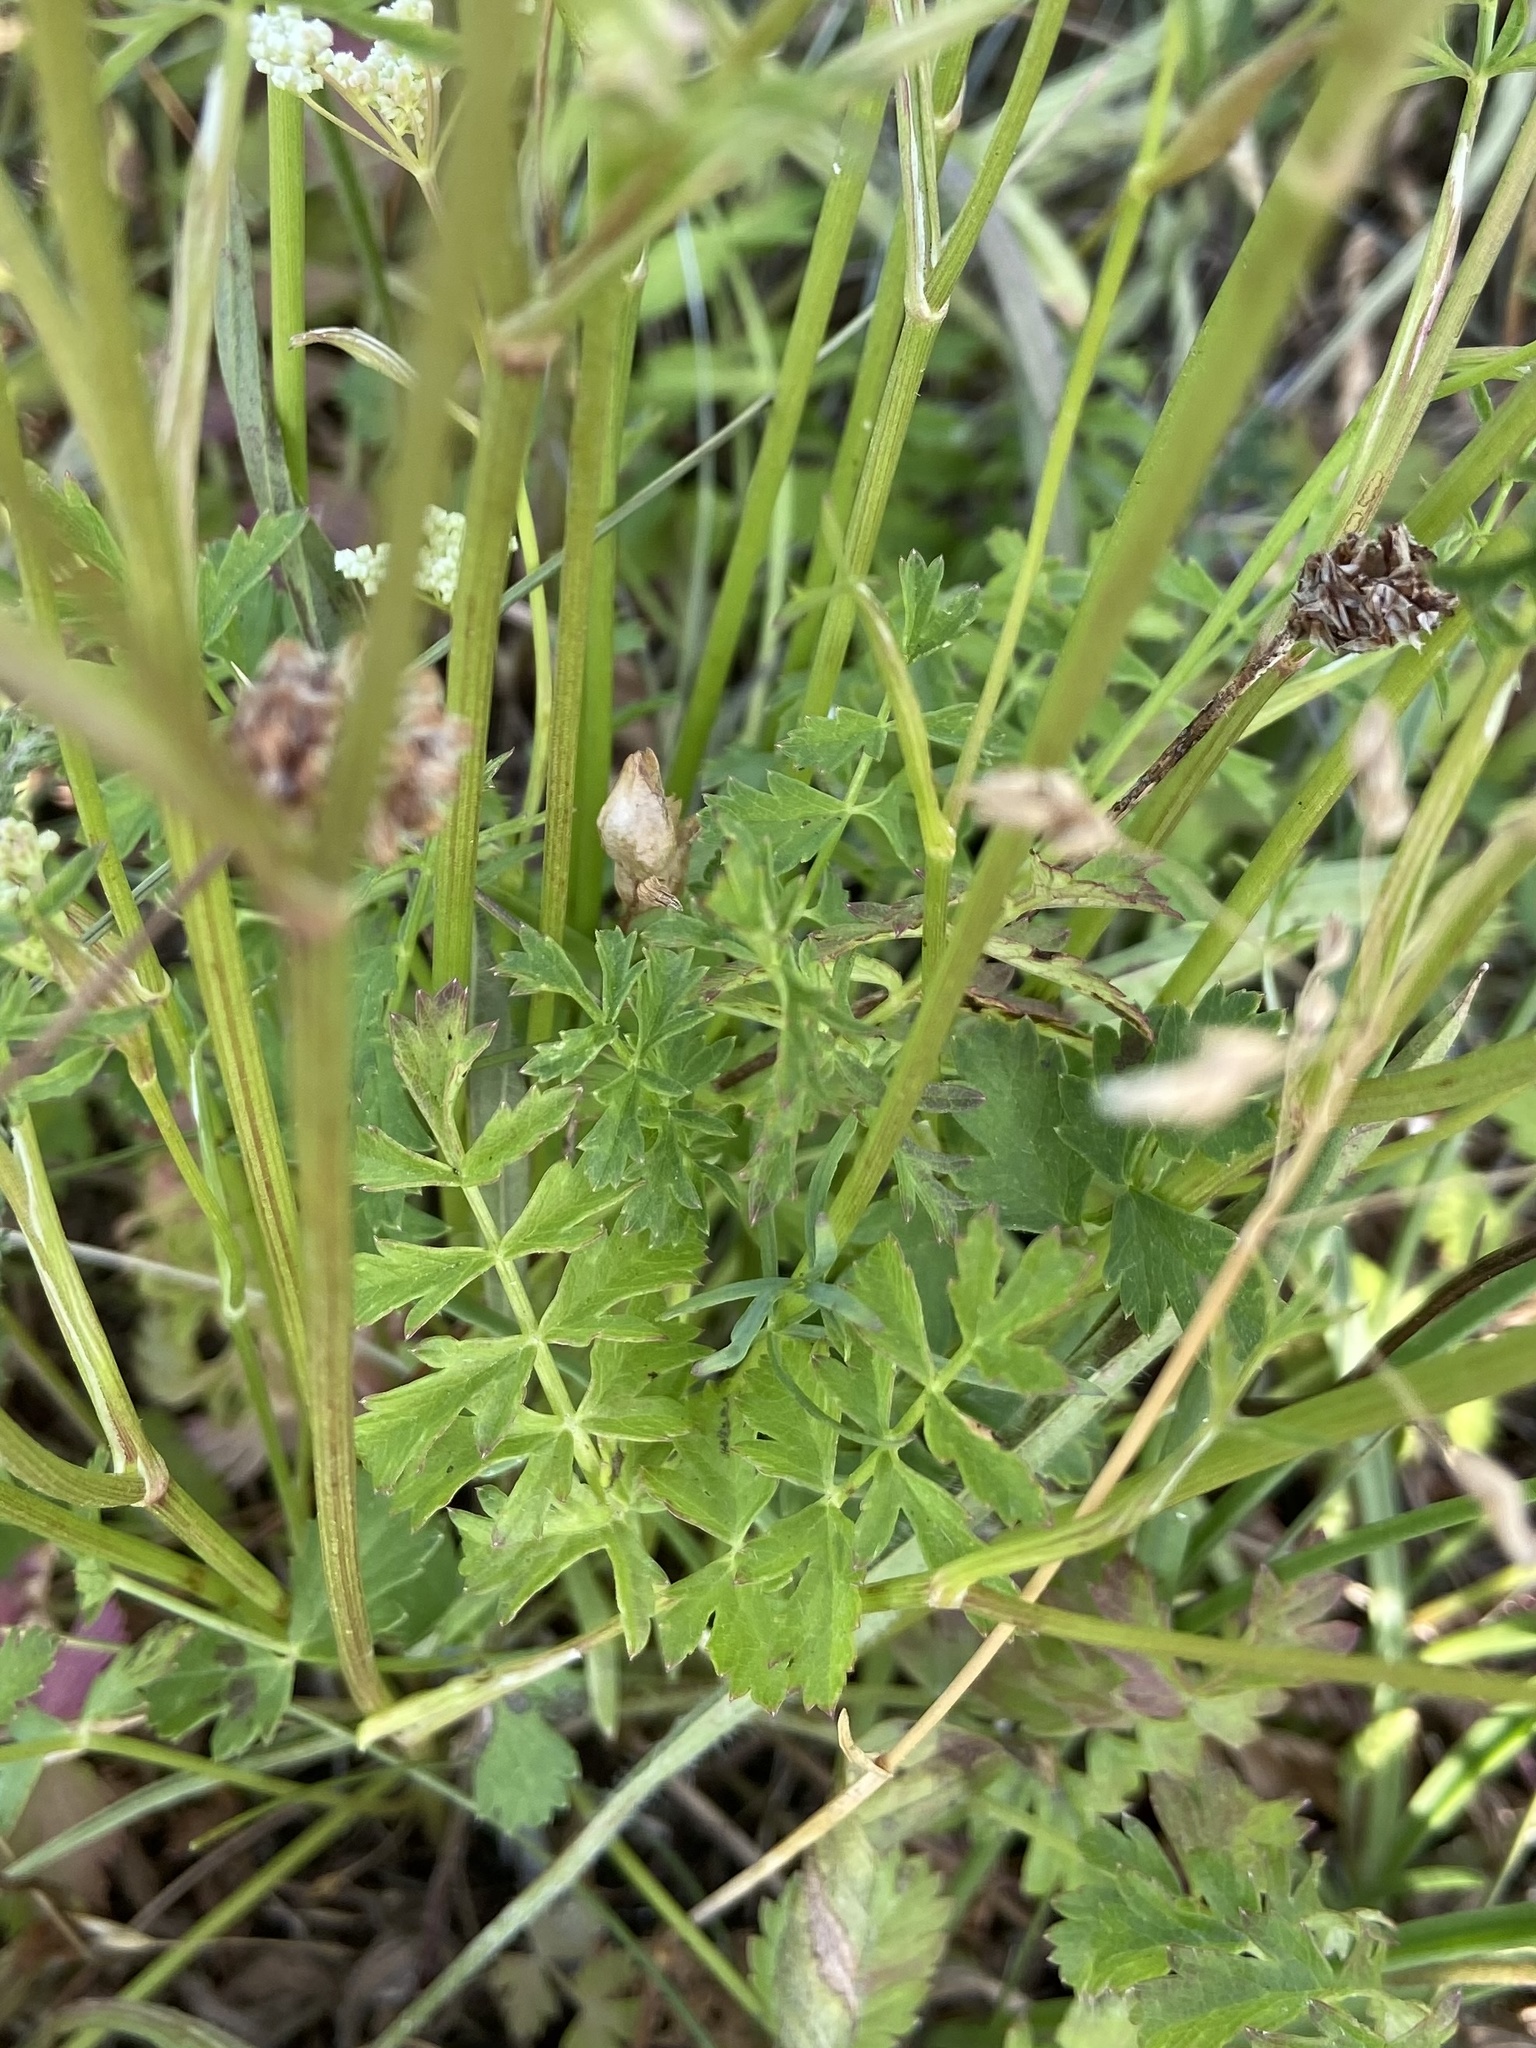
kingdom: Plantae
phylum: Tracheophyta
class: Magnoliopsida
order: Apiales
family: Apiaceae
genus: Pimpinella
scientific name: Pimpinella saxifraga
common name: Burnet-saxifrage
